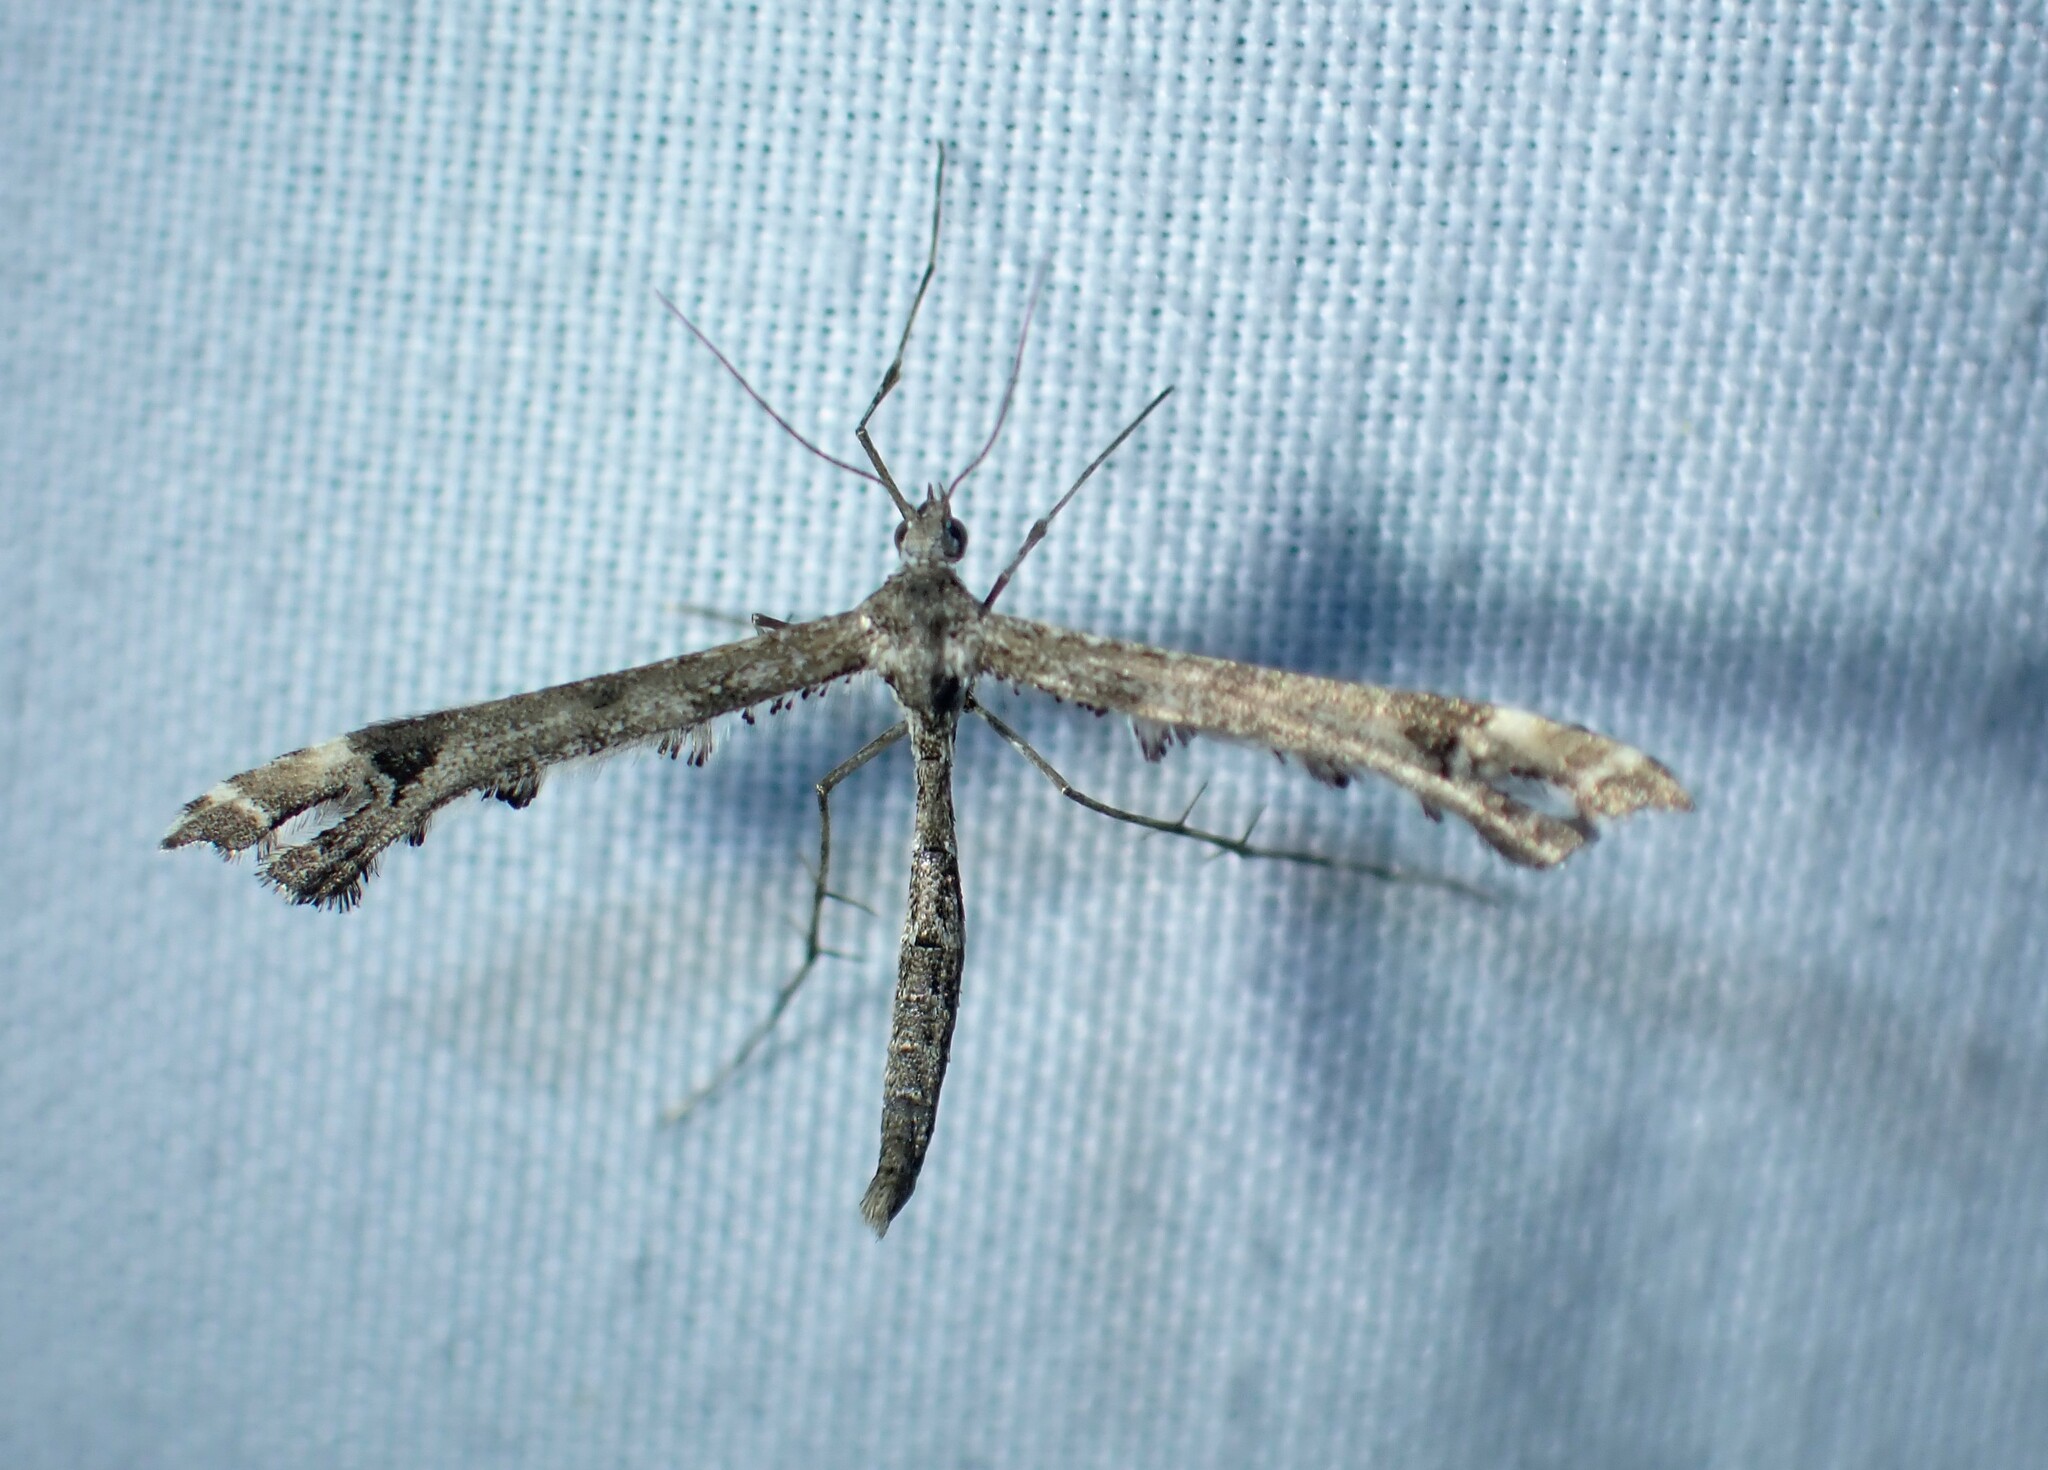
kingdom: Animalia
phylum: Arthropoda
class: Insecta
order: Lepidoptera
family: Pterophoridae
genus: Amblyptilia
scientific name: Amblyptilia pica
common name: Geranium plume moth
